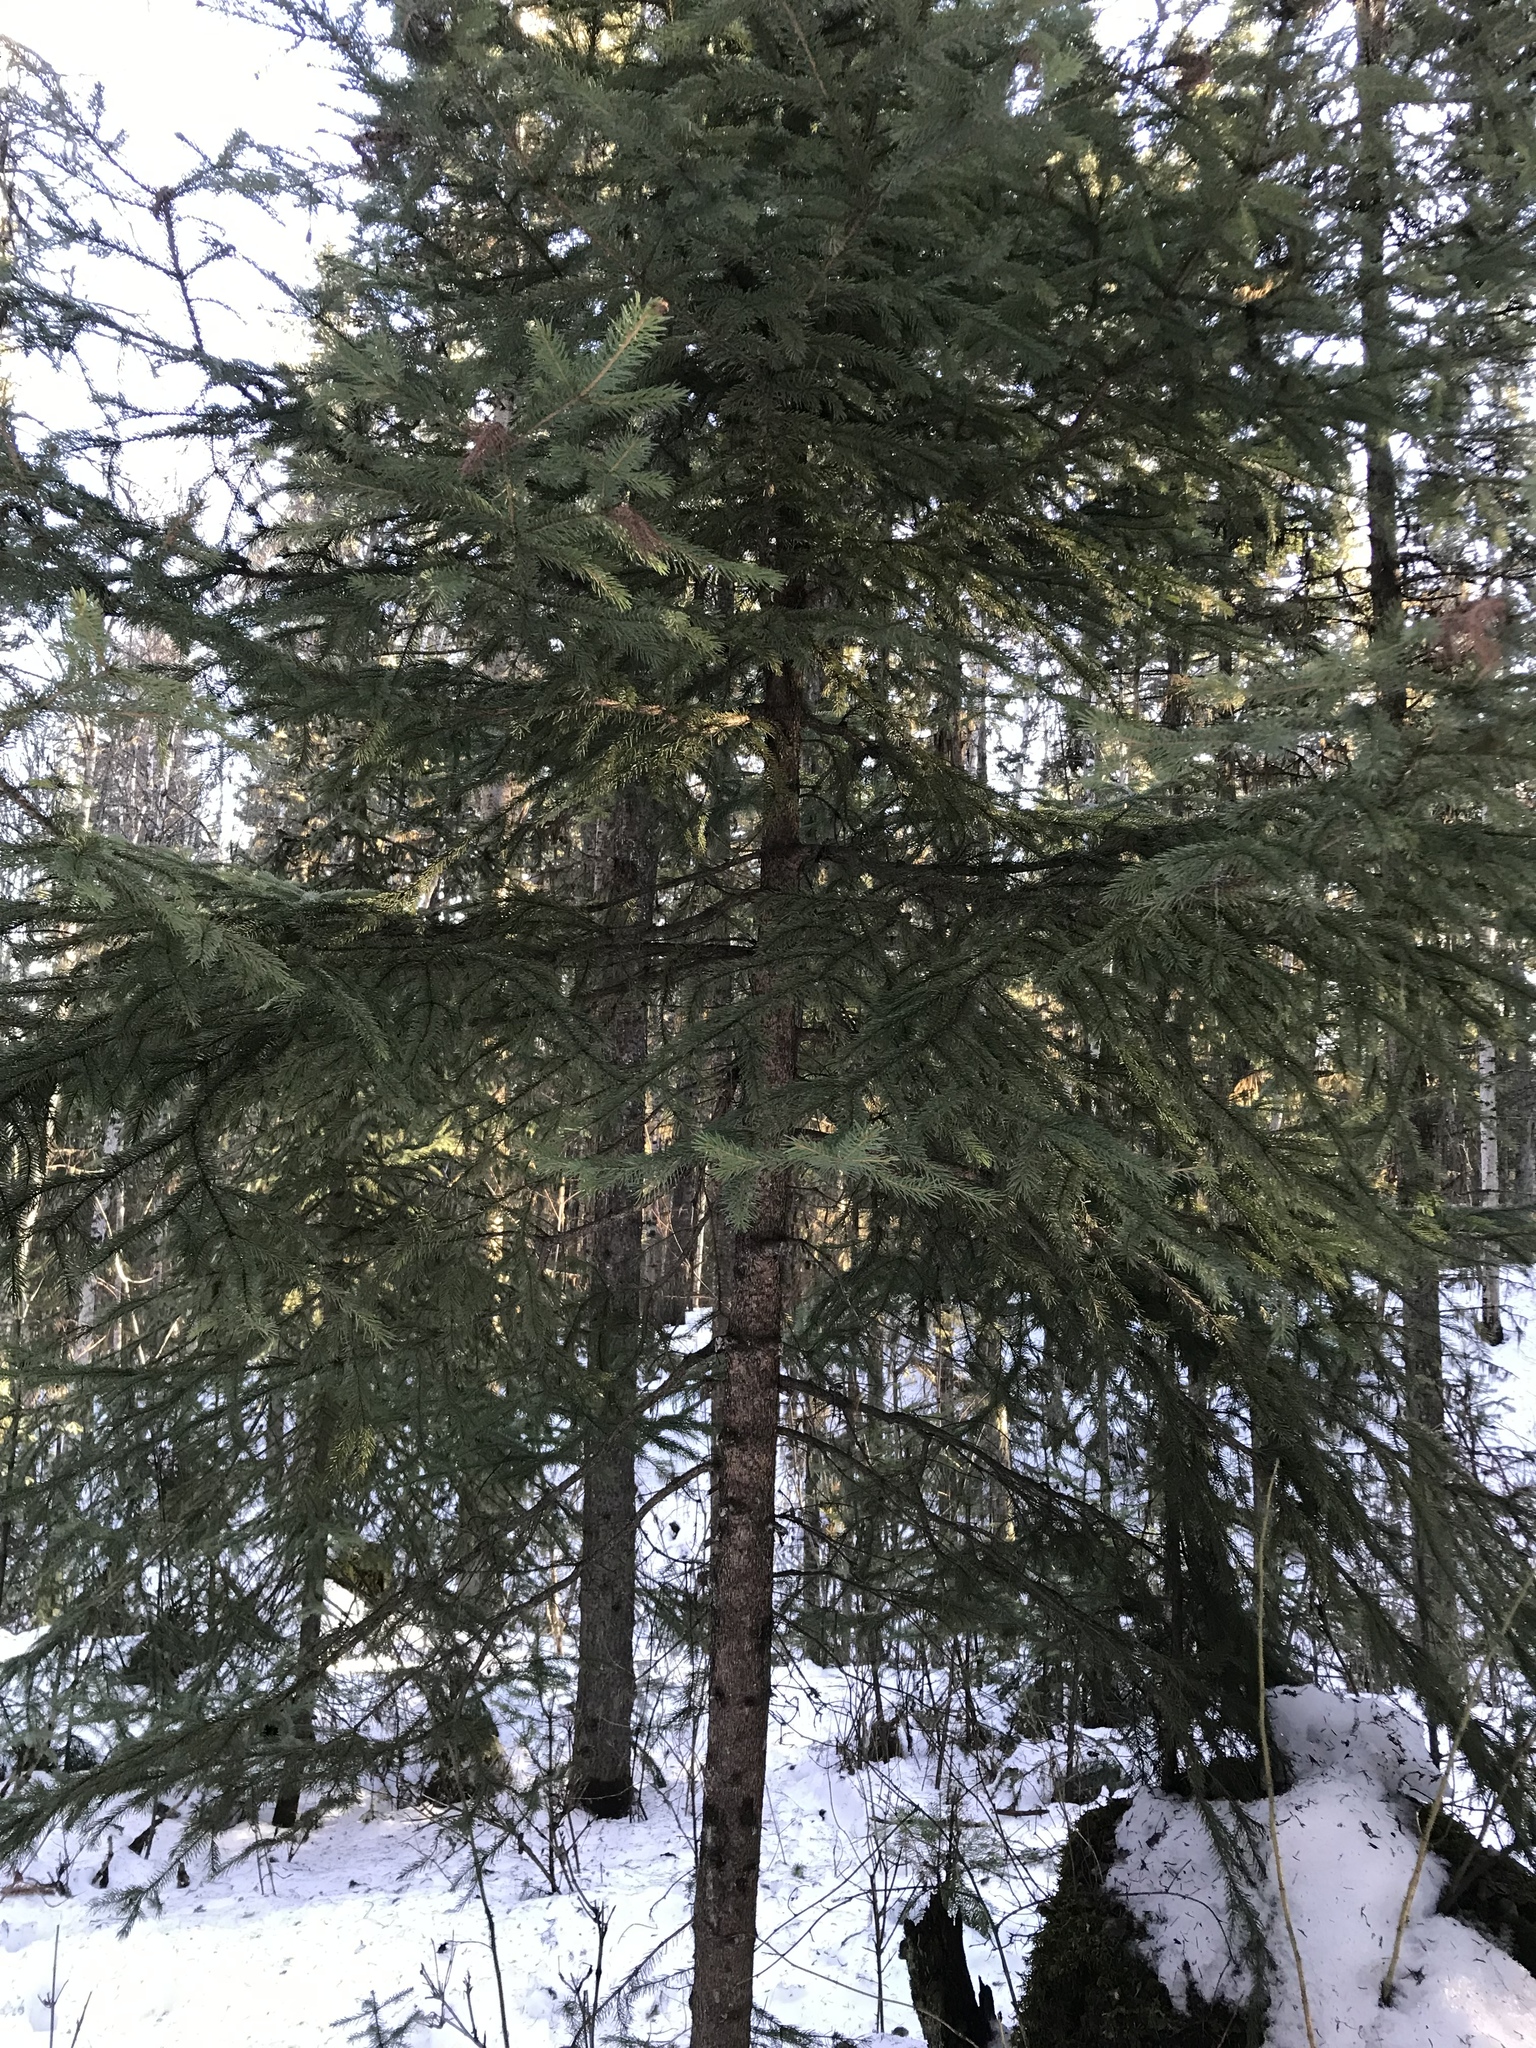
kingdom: Plantae
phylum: Tracheophyta
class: Pinopsida
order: Pinales
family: Pinaceae
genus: Picea
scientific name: Picea glauca
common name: White spruce
